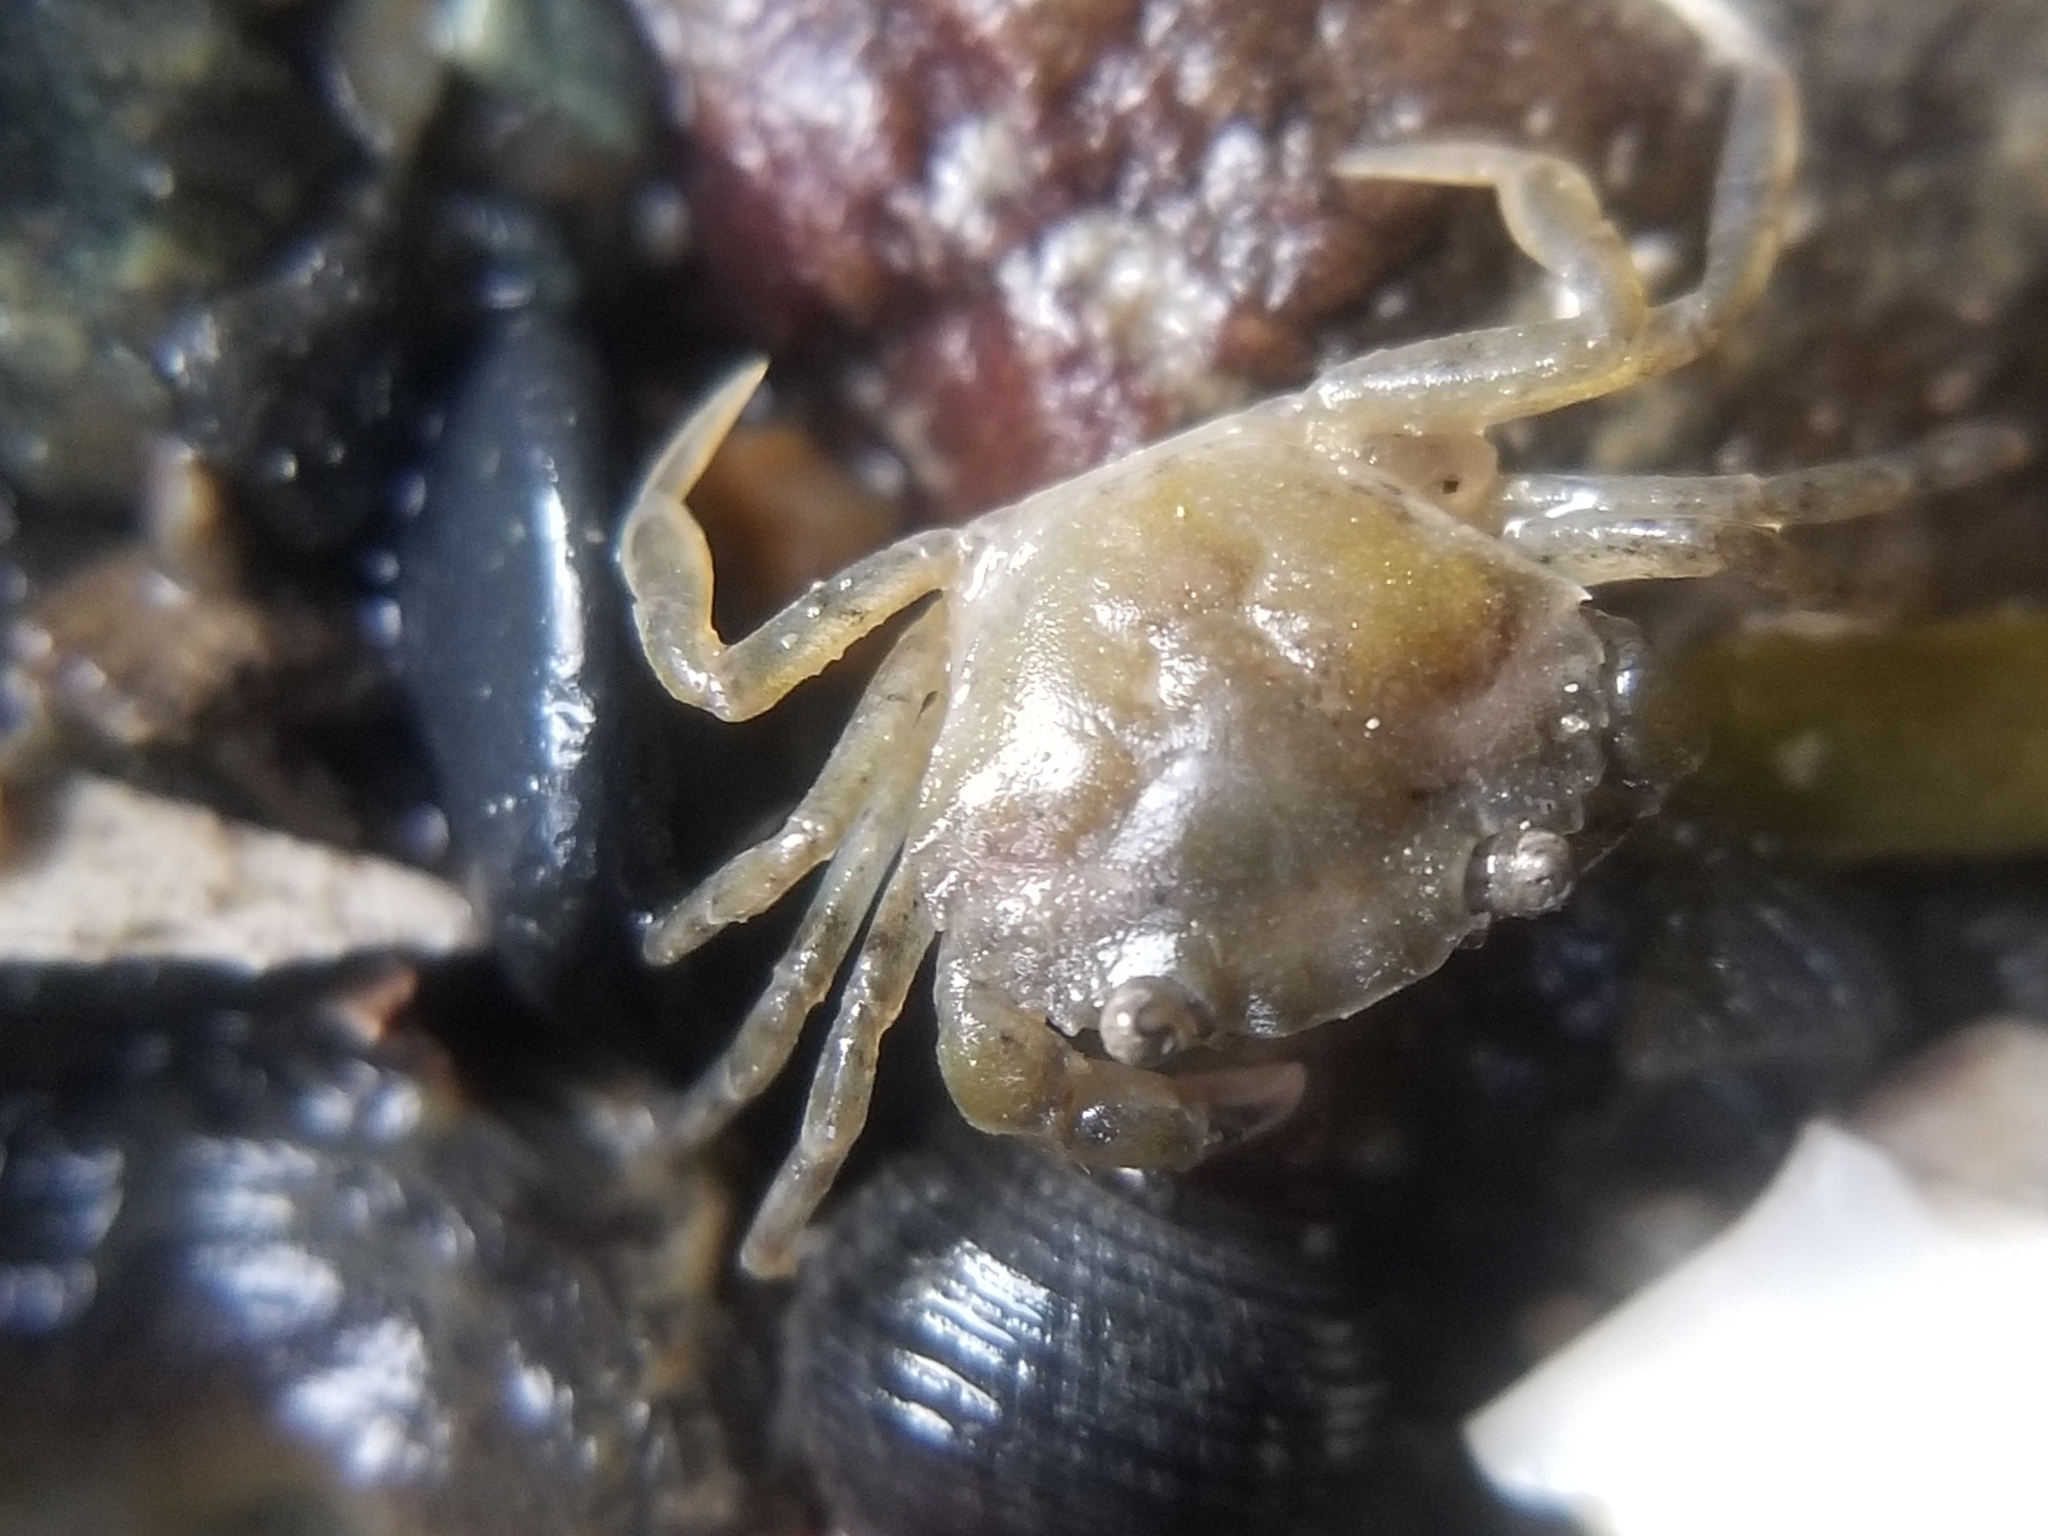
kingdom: Animalia
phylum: Arthropoda
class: Malacostraca
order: Decapoda
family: Carcinidae
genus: Carcinus
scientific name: Carcinus maenas
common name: European green crab
